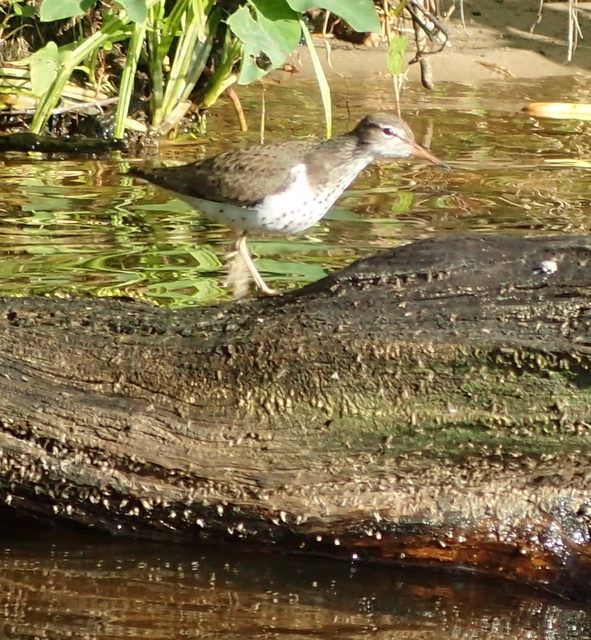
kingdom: Animalia
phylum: Chordata
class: Aves
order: Charadriiformes
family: Scolopacidae
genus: Actitis
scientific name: Actitis macularius
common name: Spotted sandpiper
